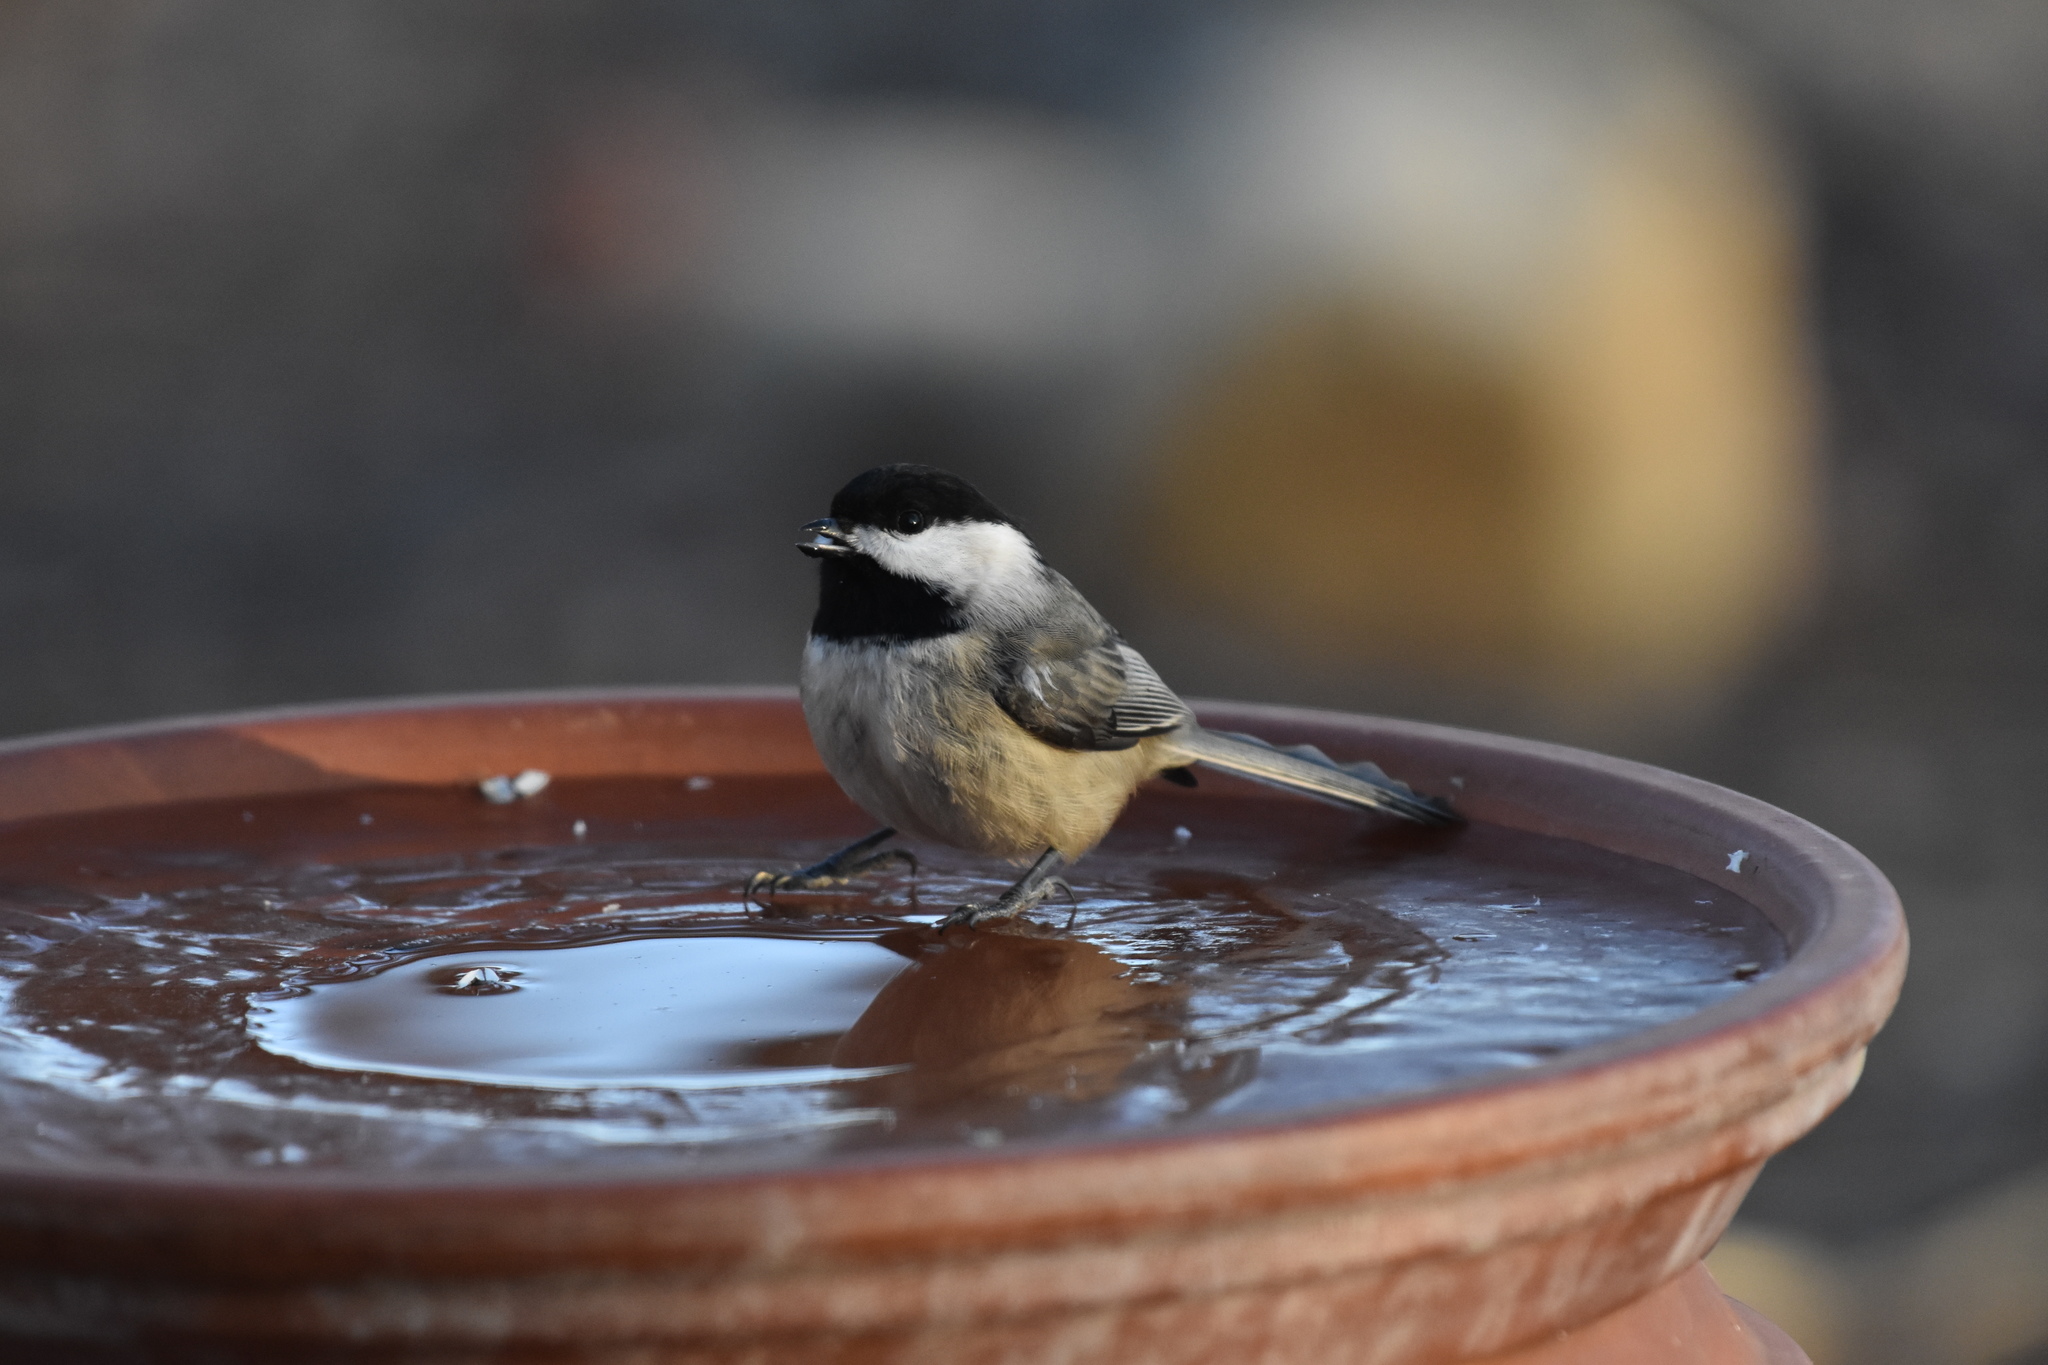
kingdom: Animalia
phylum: Chordata
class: Aves
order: Passeriformes
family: Paridae
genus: Poecile
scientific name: Poecile
